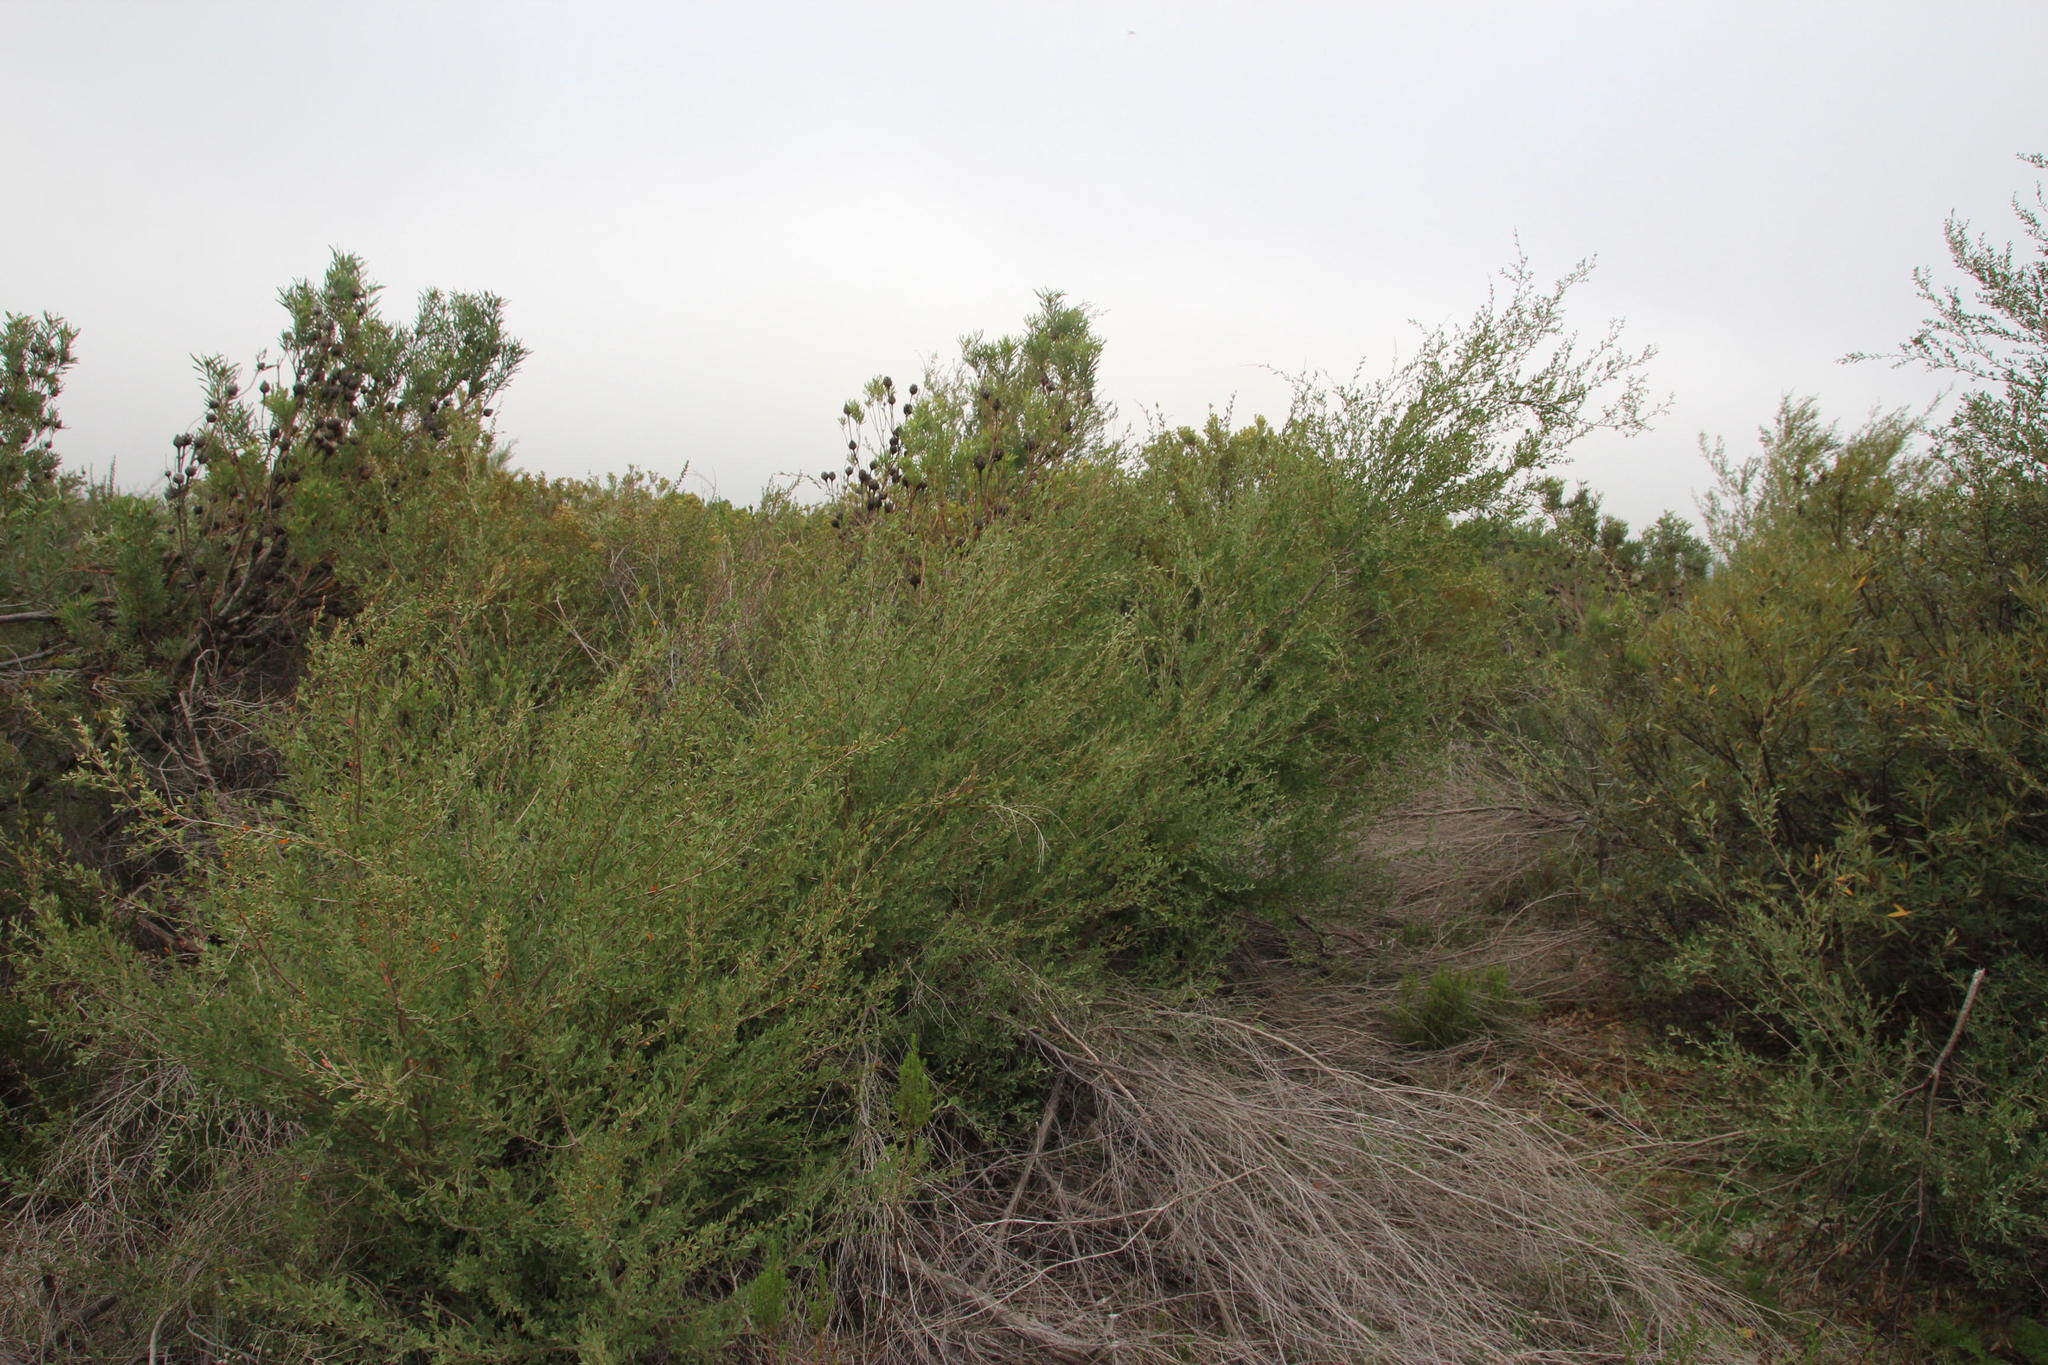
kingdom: Plantae
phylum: Tracheophyta
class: Magnoliopsida
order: Myrtales
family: Myrtaceae
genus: Leptospermum
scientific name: Leptospermum laevigatum
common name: Australian teatree
